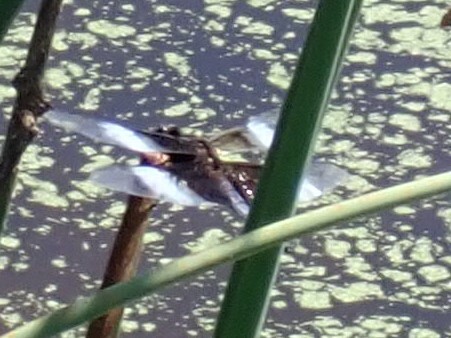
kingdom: Animalia
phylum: Arthropoda
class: Insecta
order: Odonata
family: Libellulidae
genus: Libellula
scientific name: Libellula luctuosa
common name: Widow skimmer
